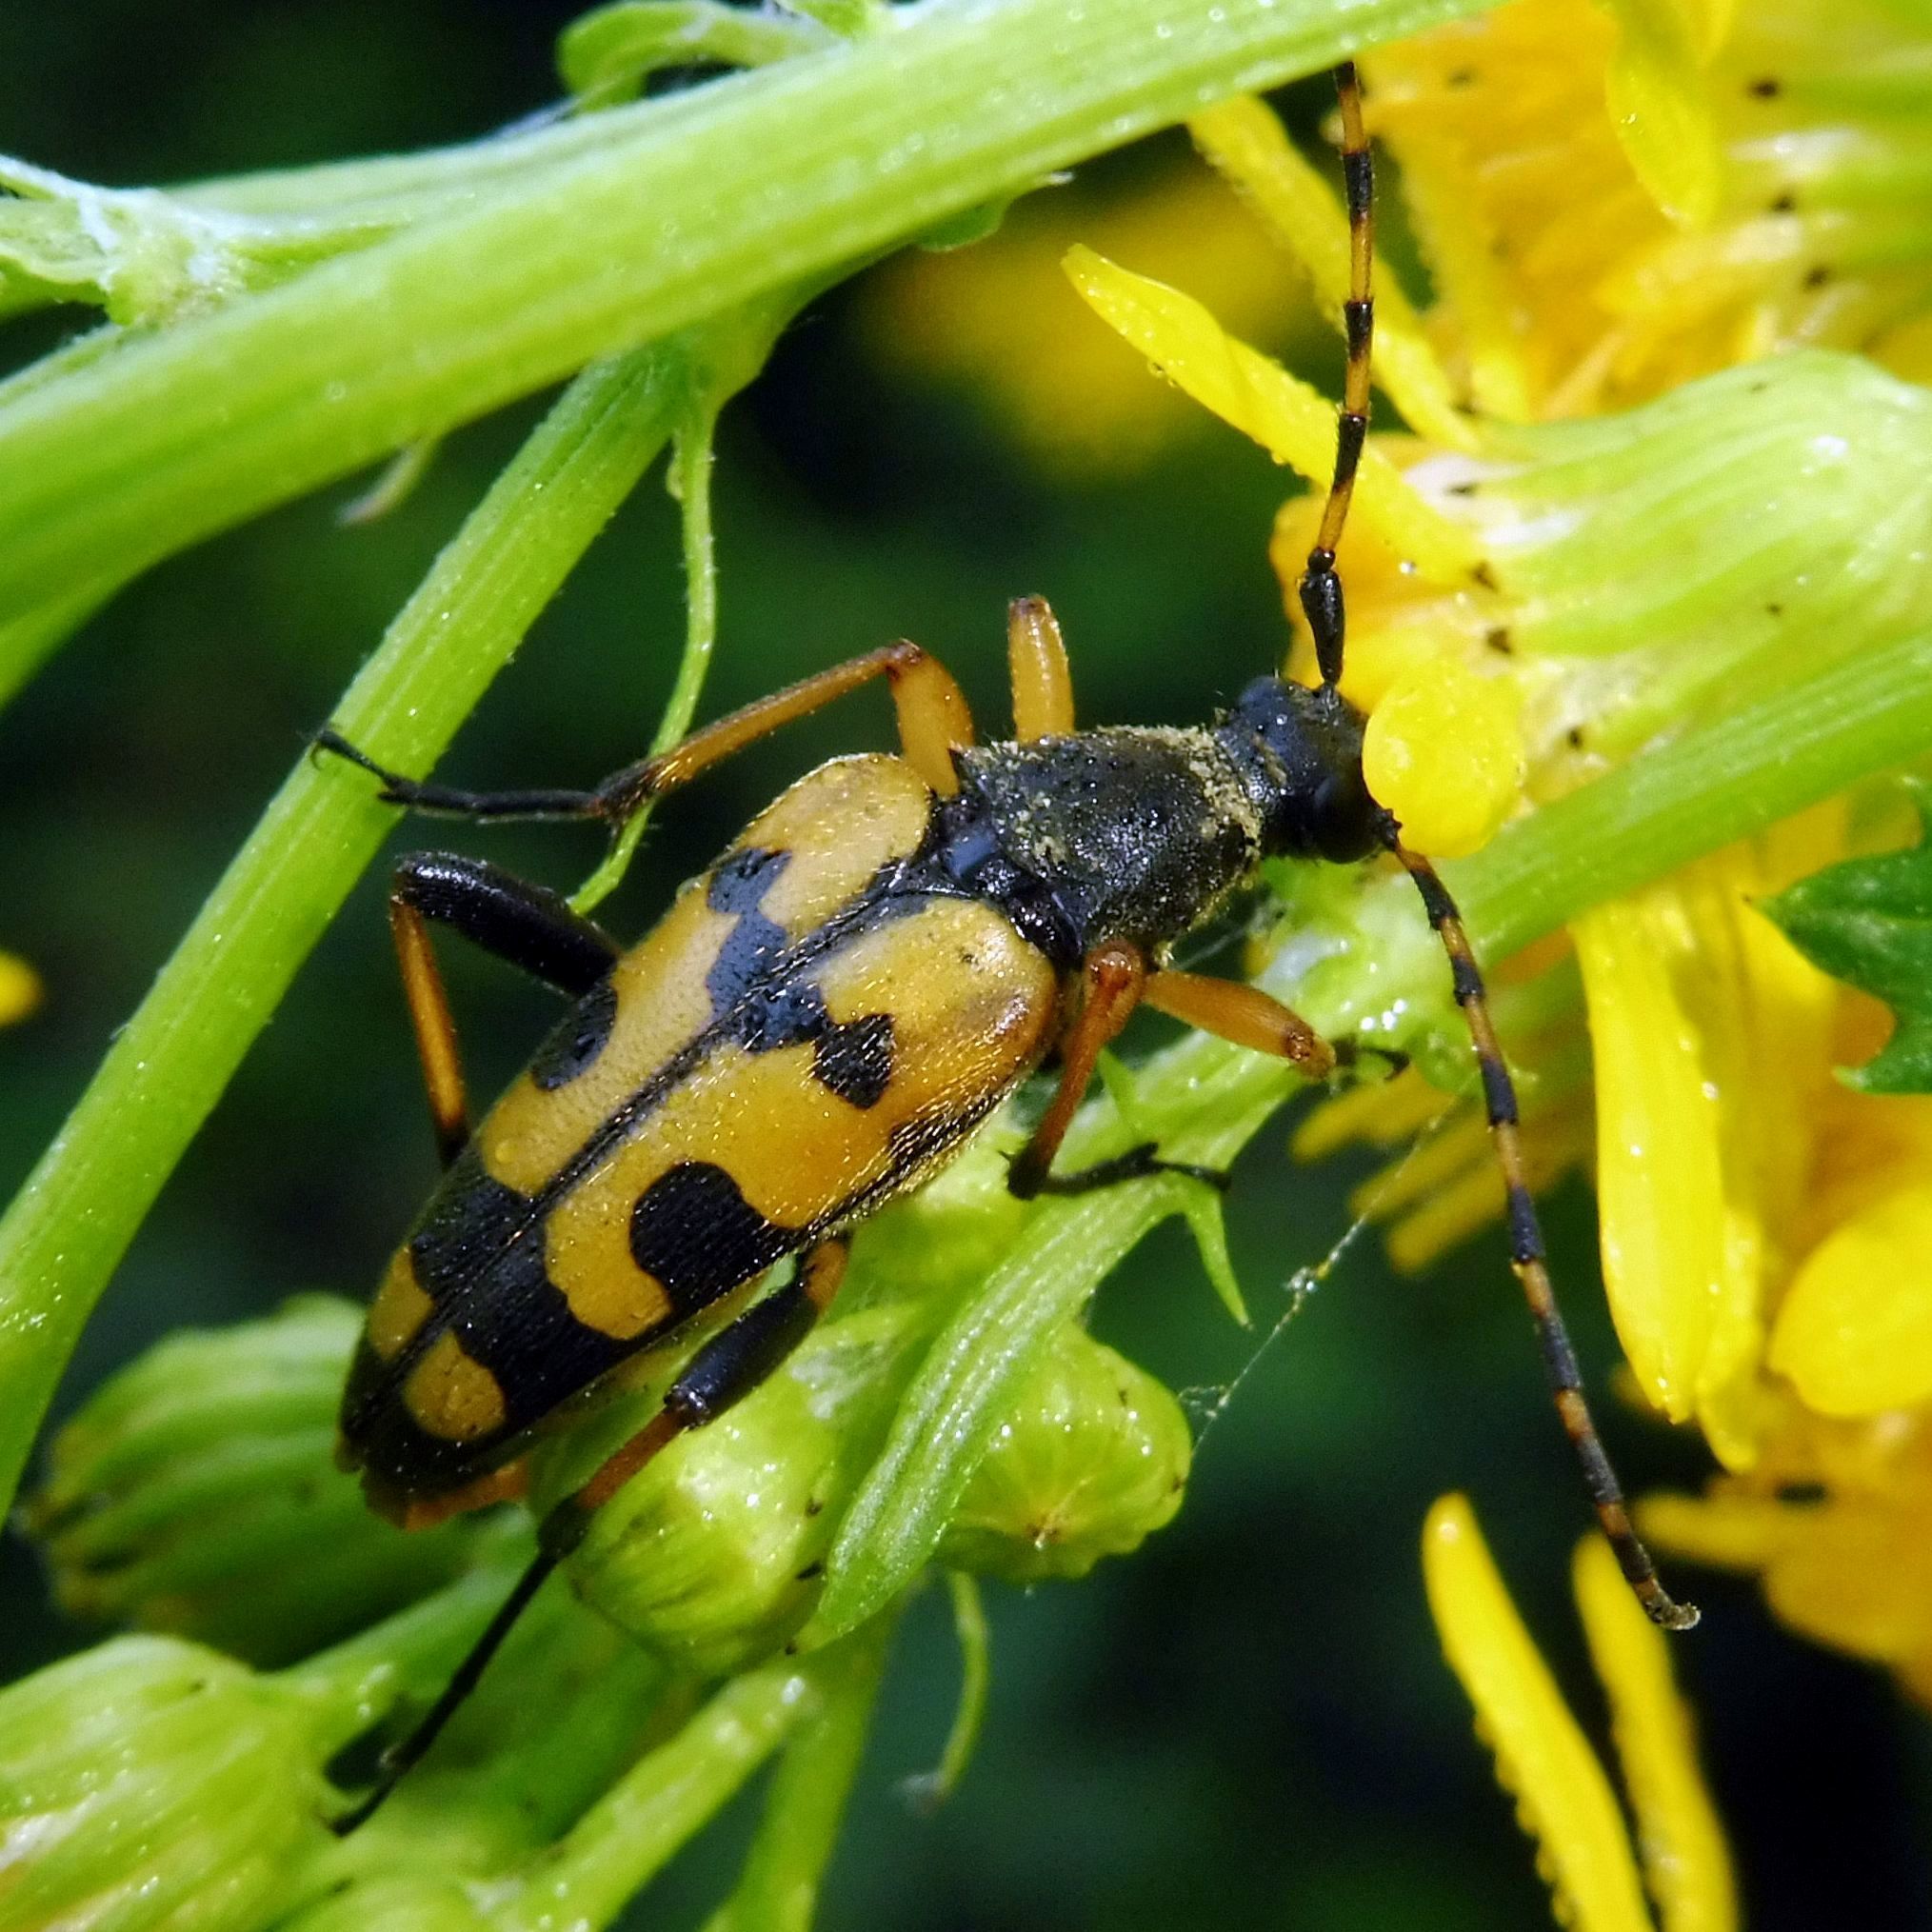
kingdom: Animalia
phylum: Arthropoda
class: Insecta
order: Coleoptera
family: Cerambycidae
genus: Rutpela
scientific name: Rutpela maculata
